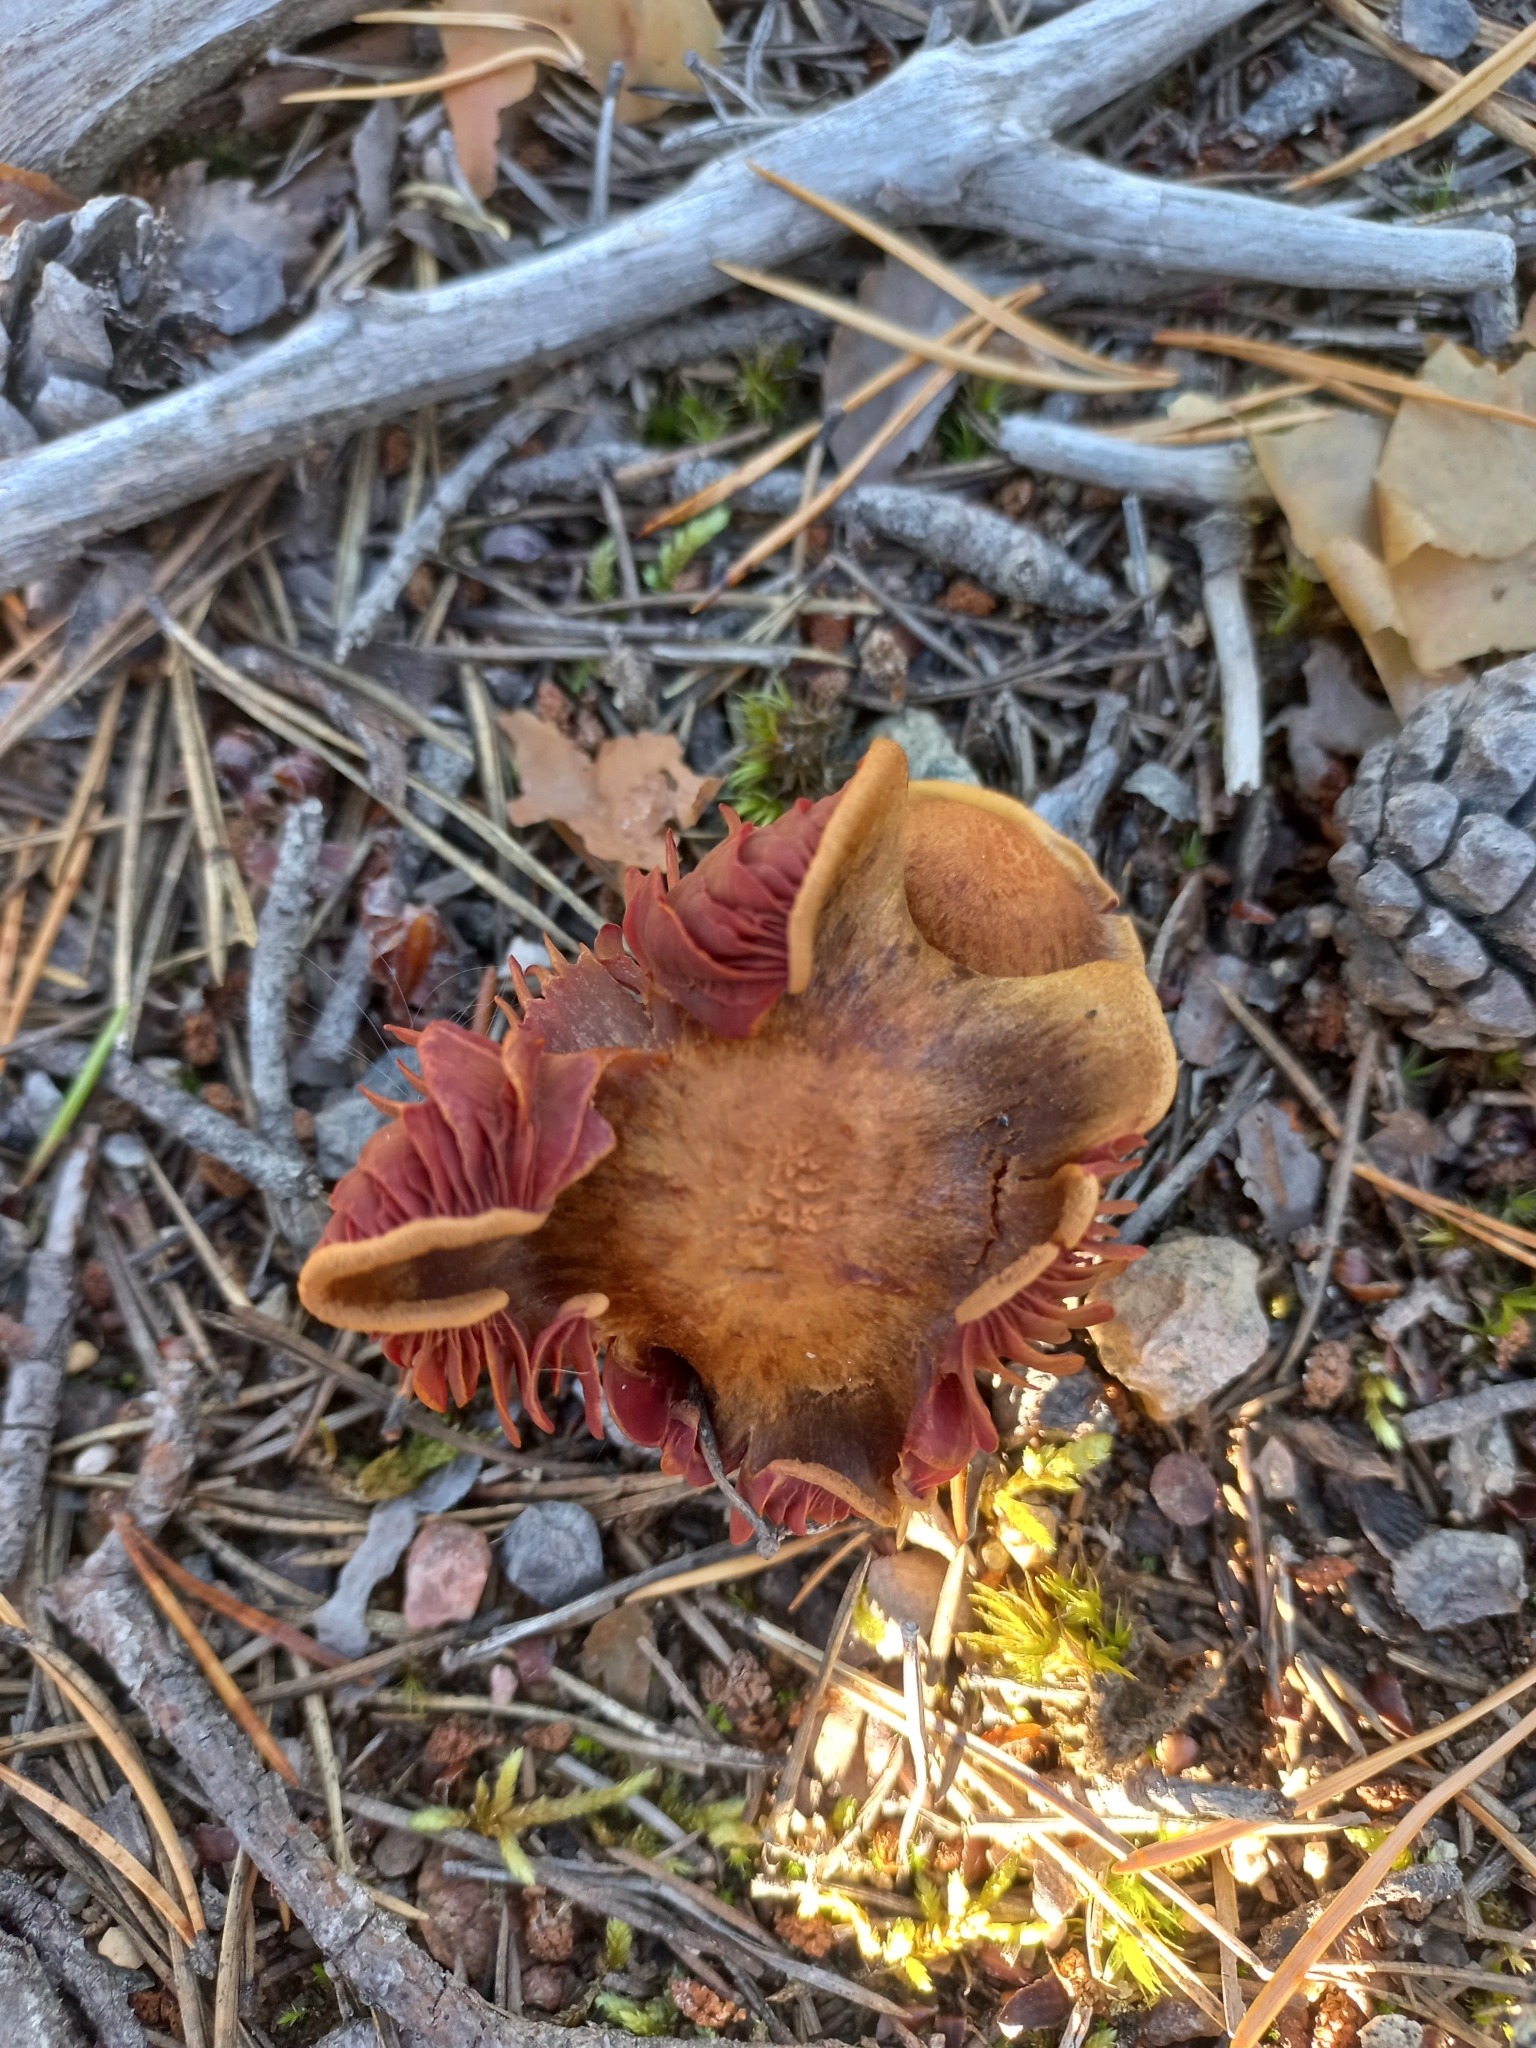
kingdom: Fungi
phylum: Basidiomycota
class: Agaricomycetes
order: Agaricales
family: Cortinariaceae
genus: Cortinarius
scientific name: Cortinarius semisanguineus
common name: Surprise webcap
